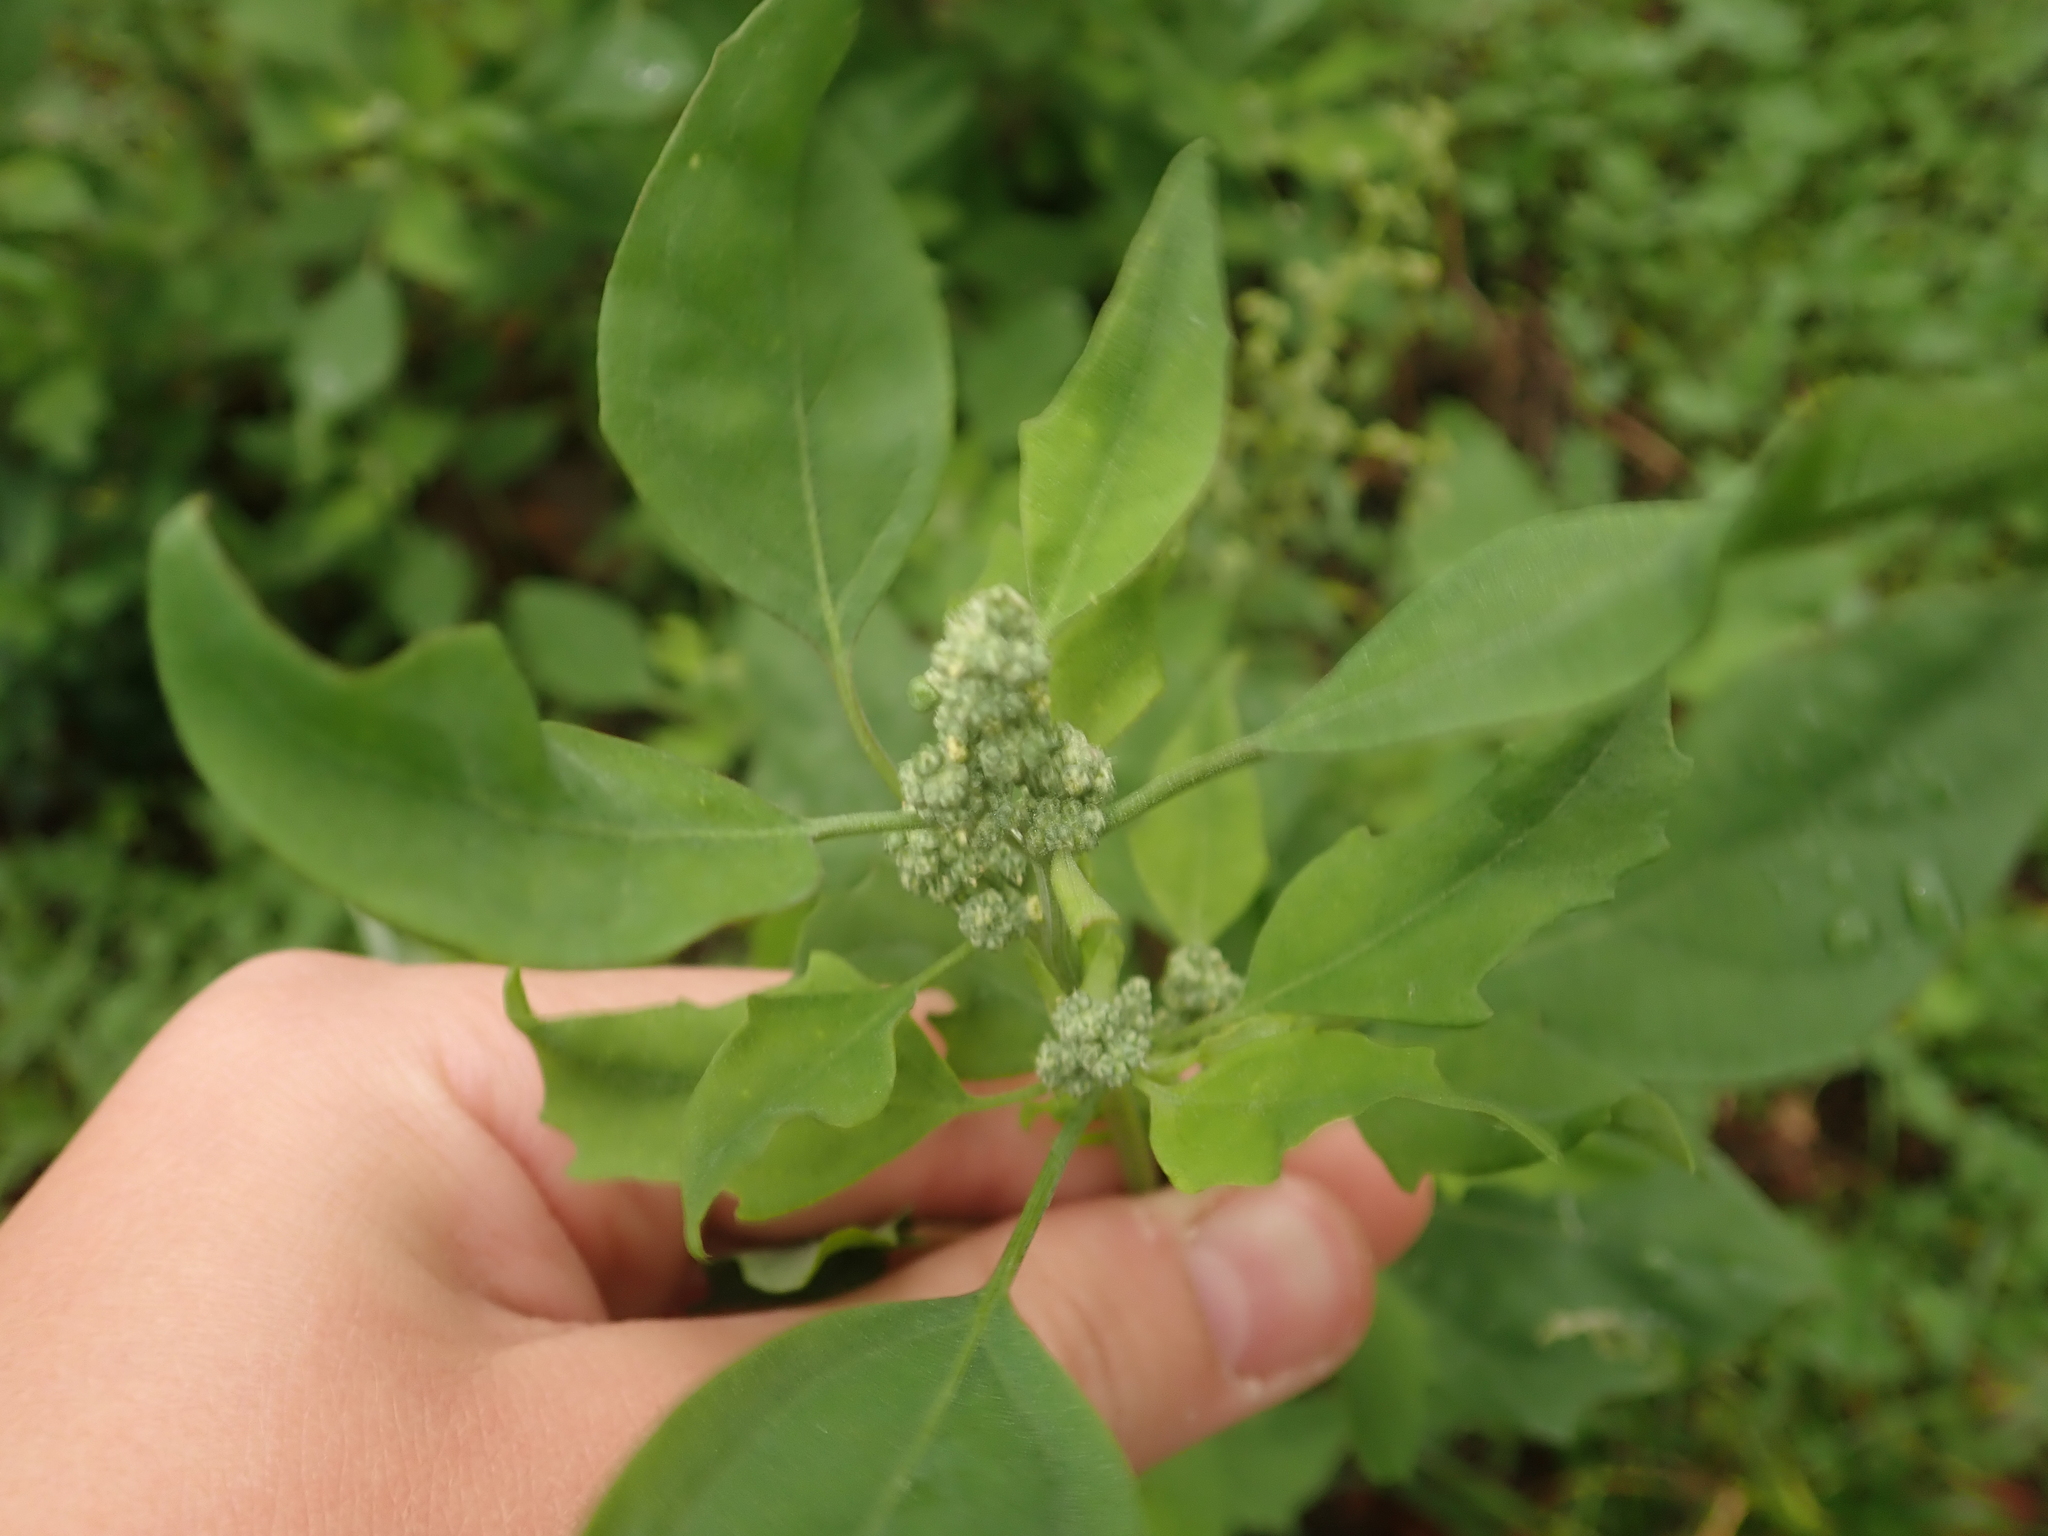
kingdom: Plantae
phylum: Tracheophyta
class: Magnoliopsida
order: Caryophyllales
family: Amaranthaceae
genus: Chenopodium
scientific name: Chenopodium album
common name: Fat-hen
